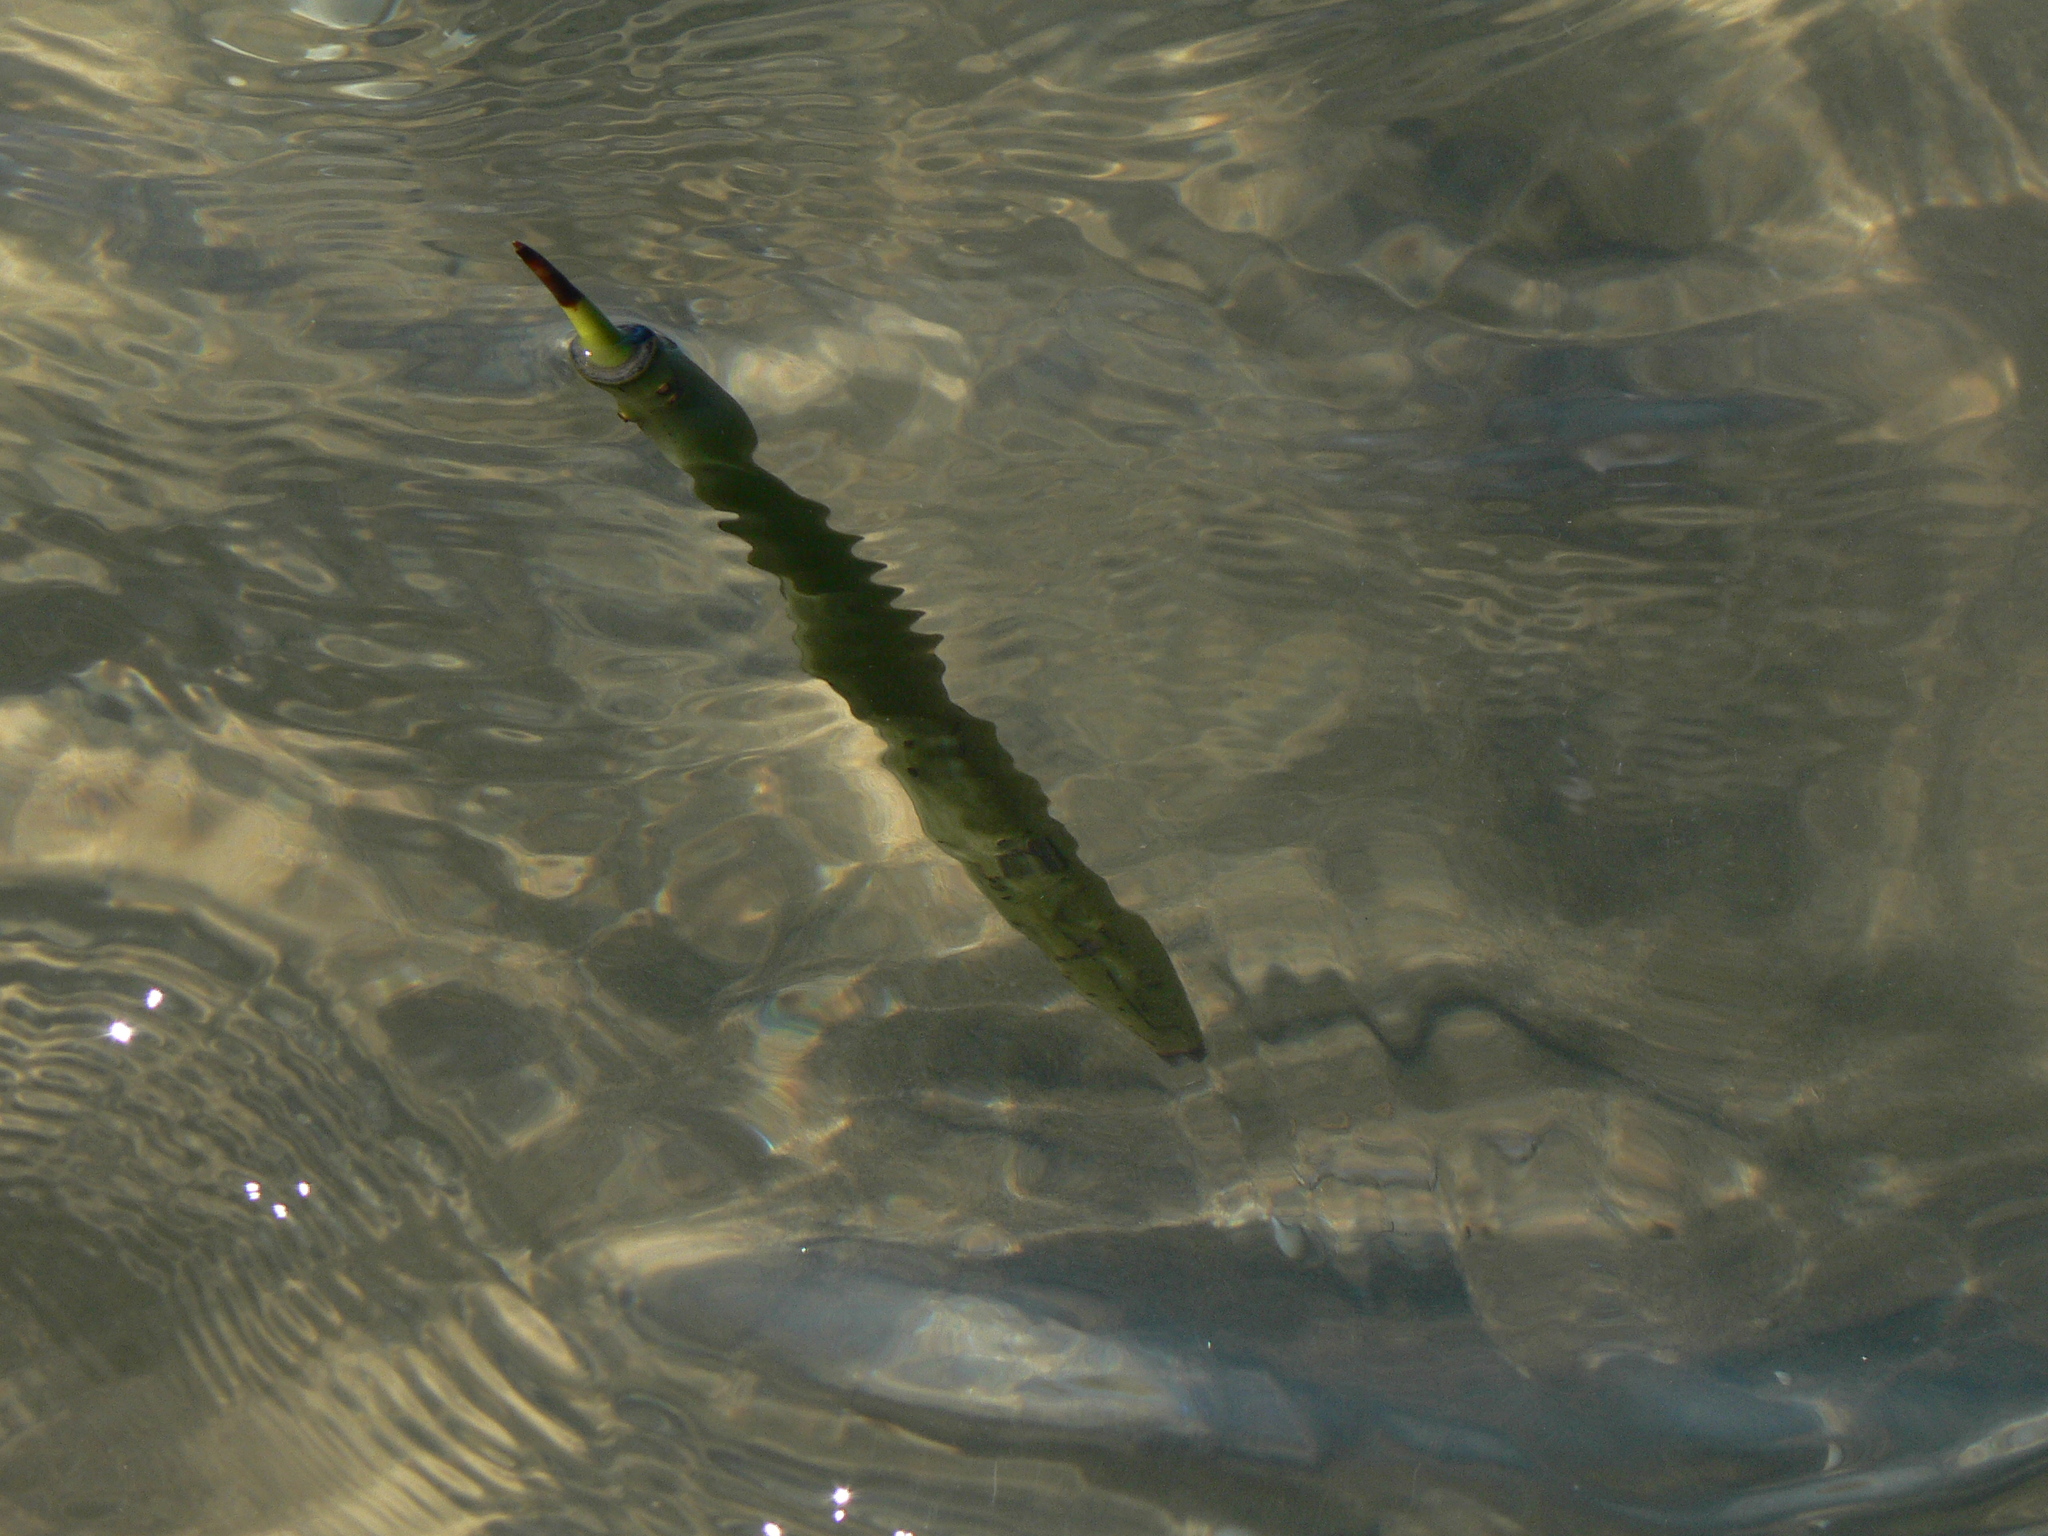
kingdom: Plantae
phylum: Tracheophyta
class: Magnoliopsida
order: Malpighiales
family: Rhizophoraceae
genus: Rhizophora
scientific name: Rhizophora stylosa
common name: Red mangrove
